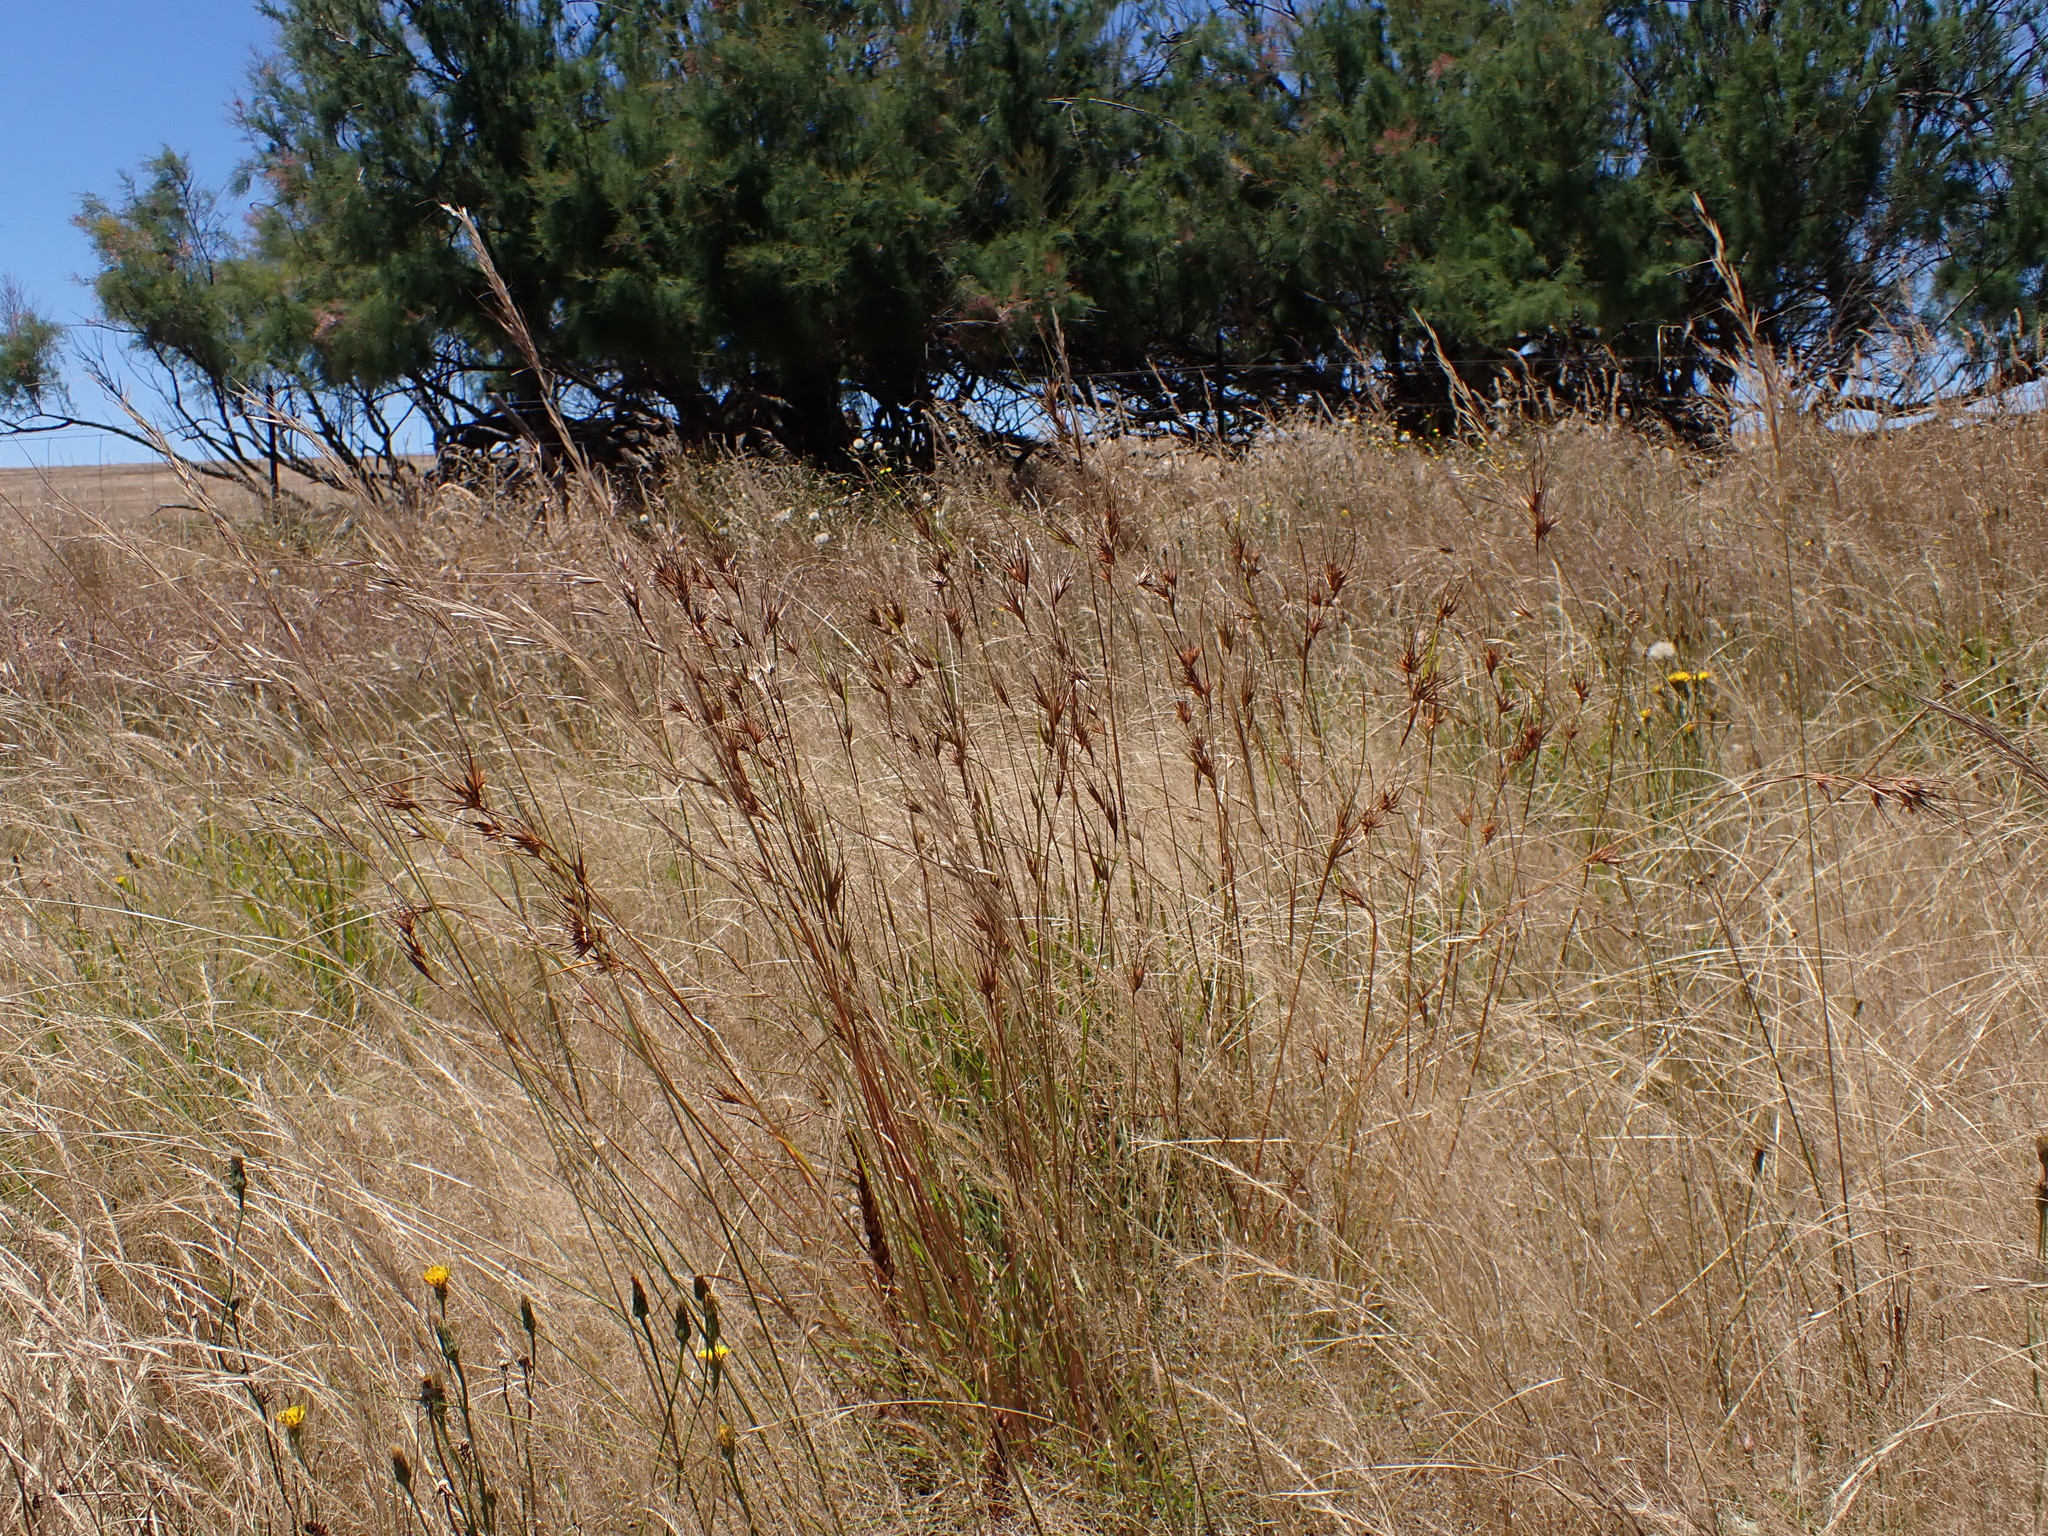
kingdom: Plantae
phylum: Tracheophyta
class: Liliopsida
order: Poales
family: Poaceae
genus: Themeda
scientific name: Themeda triandra
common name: Kangaroo grass
